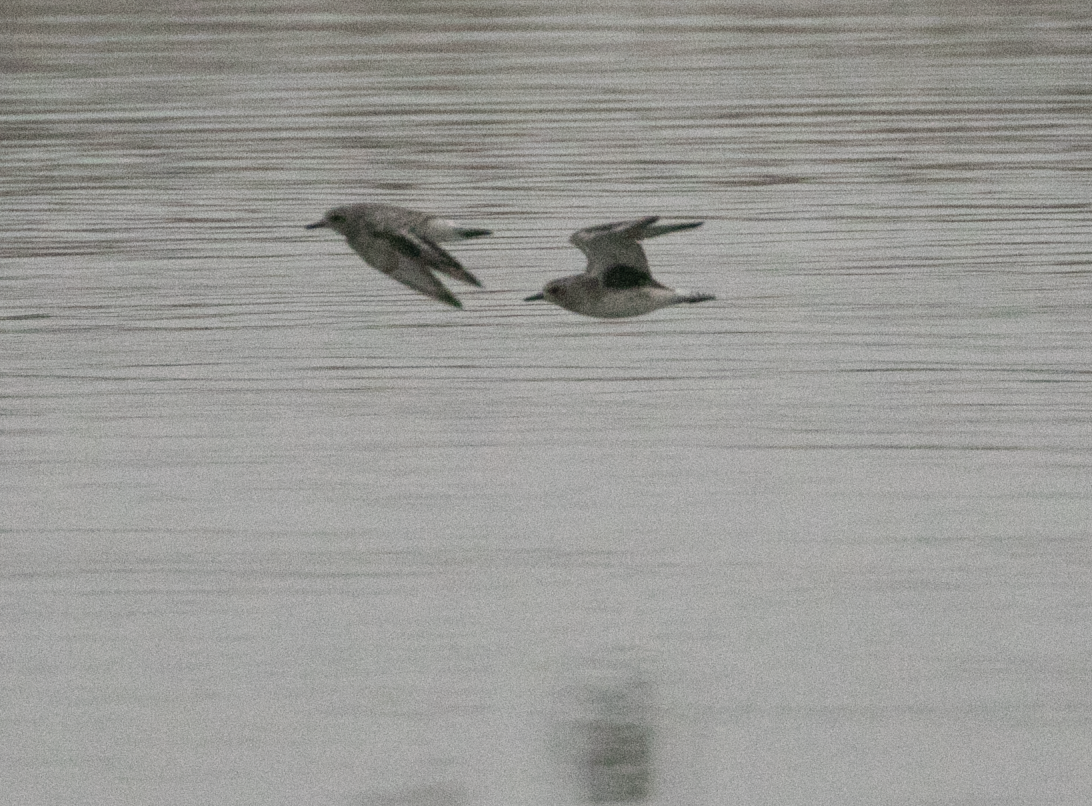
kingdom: Animalia
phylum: Chordata
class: Aves
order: Charadriiformes
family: Charadriidae
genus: Pluvialis
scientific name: Pluvialis squatarola
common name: Grey plover
